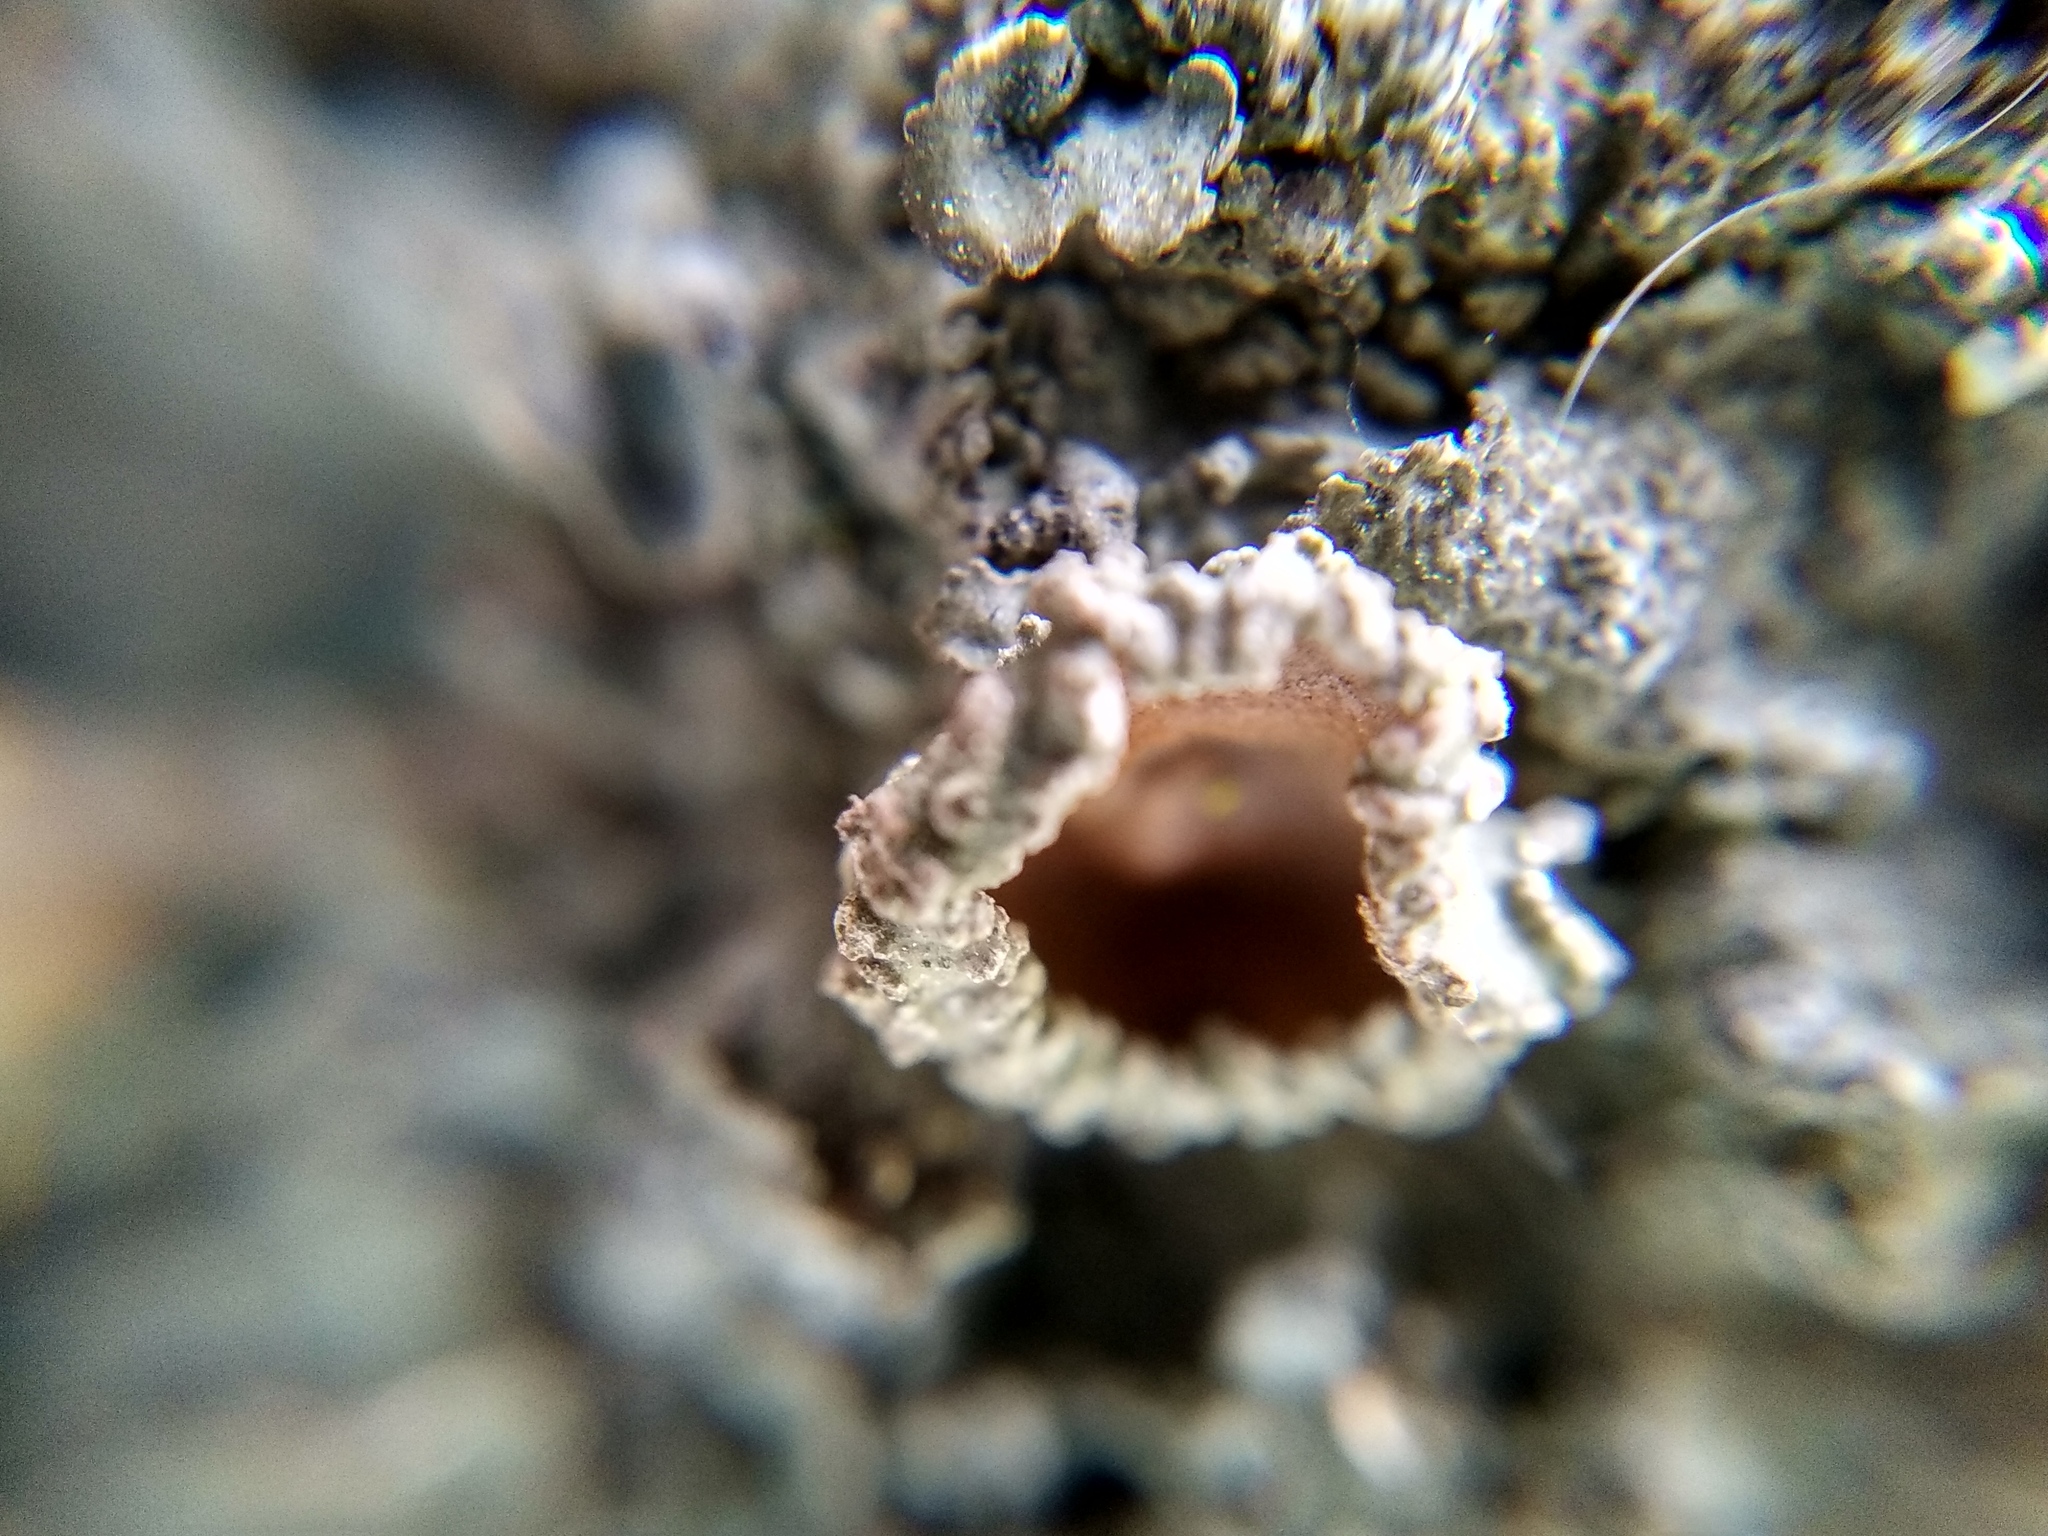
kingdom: Fungi
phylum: Ascomycota
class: Lecanoromycetes
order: Lecanorales
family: Parmeliaceae
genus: Pleurosticta
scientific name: Pleurosticta acetabulum
